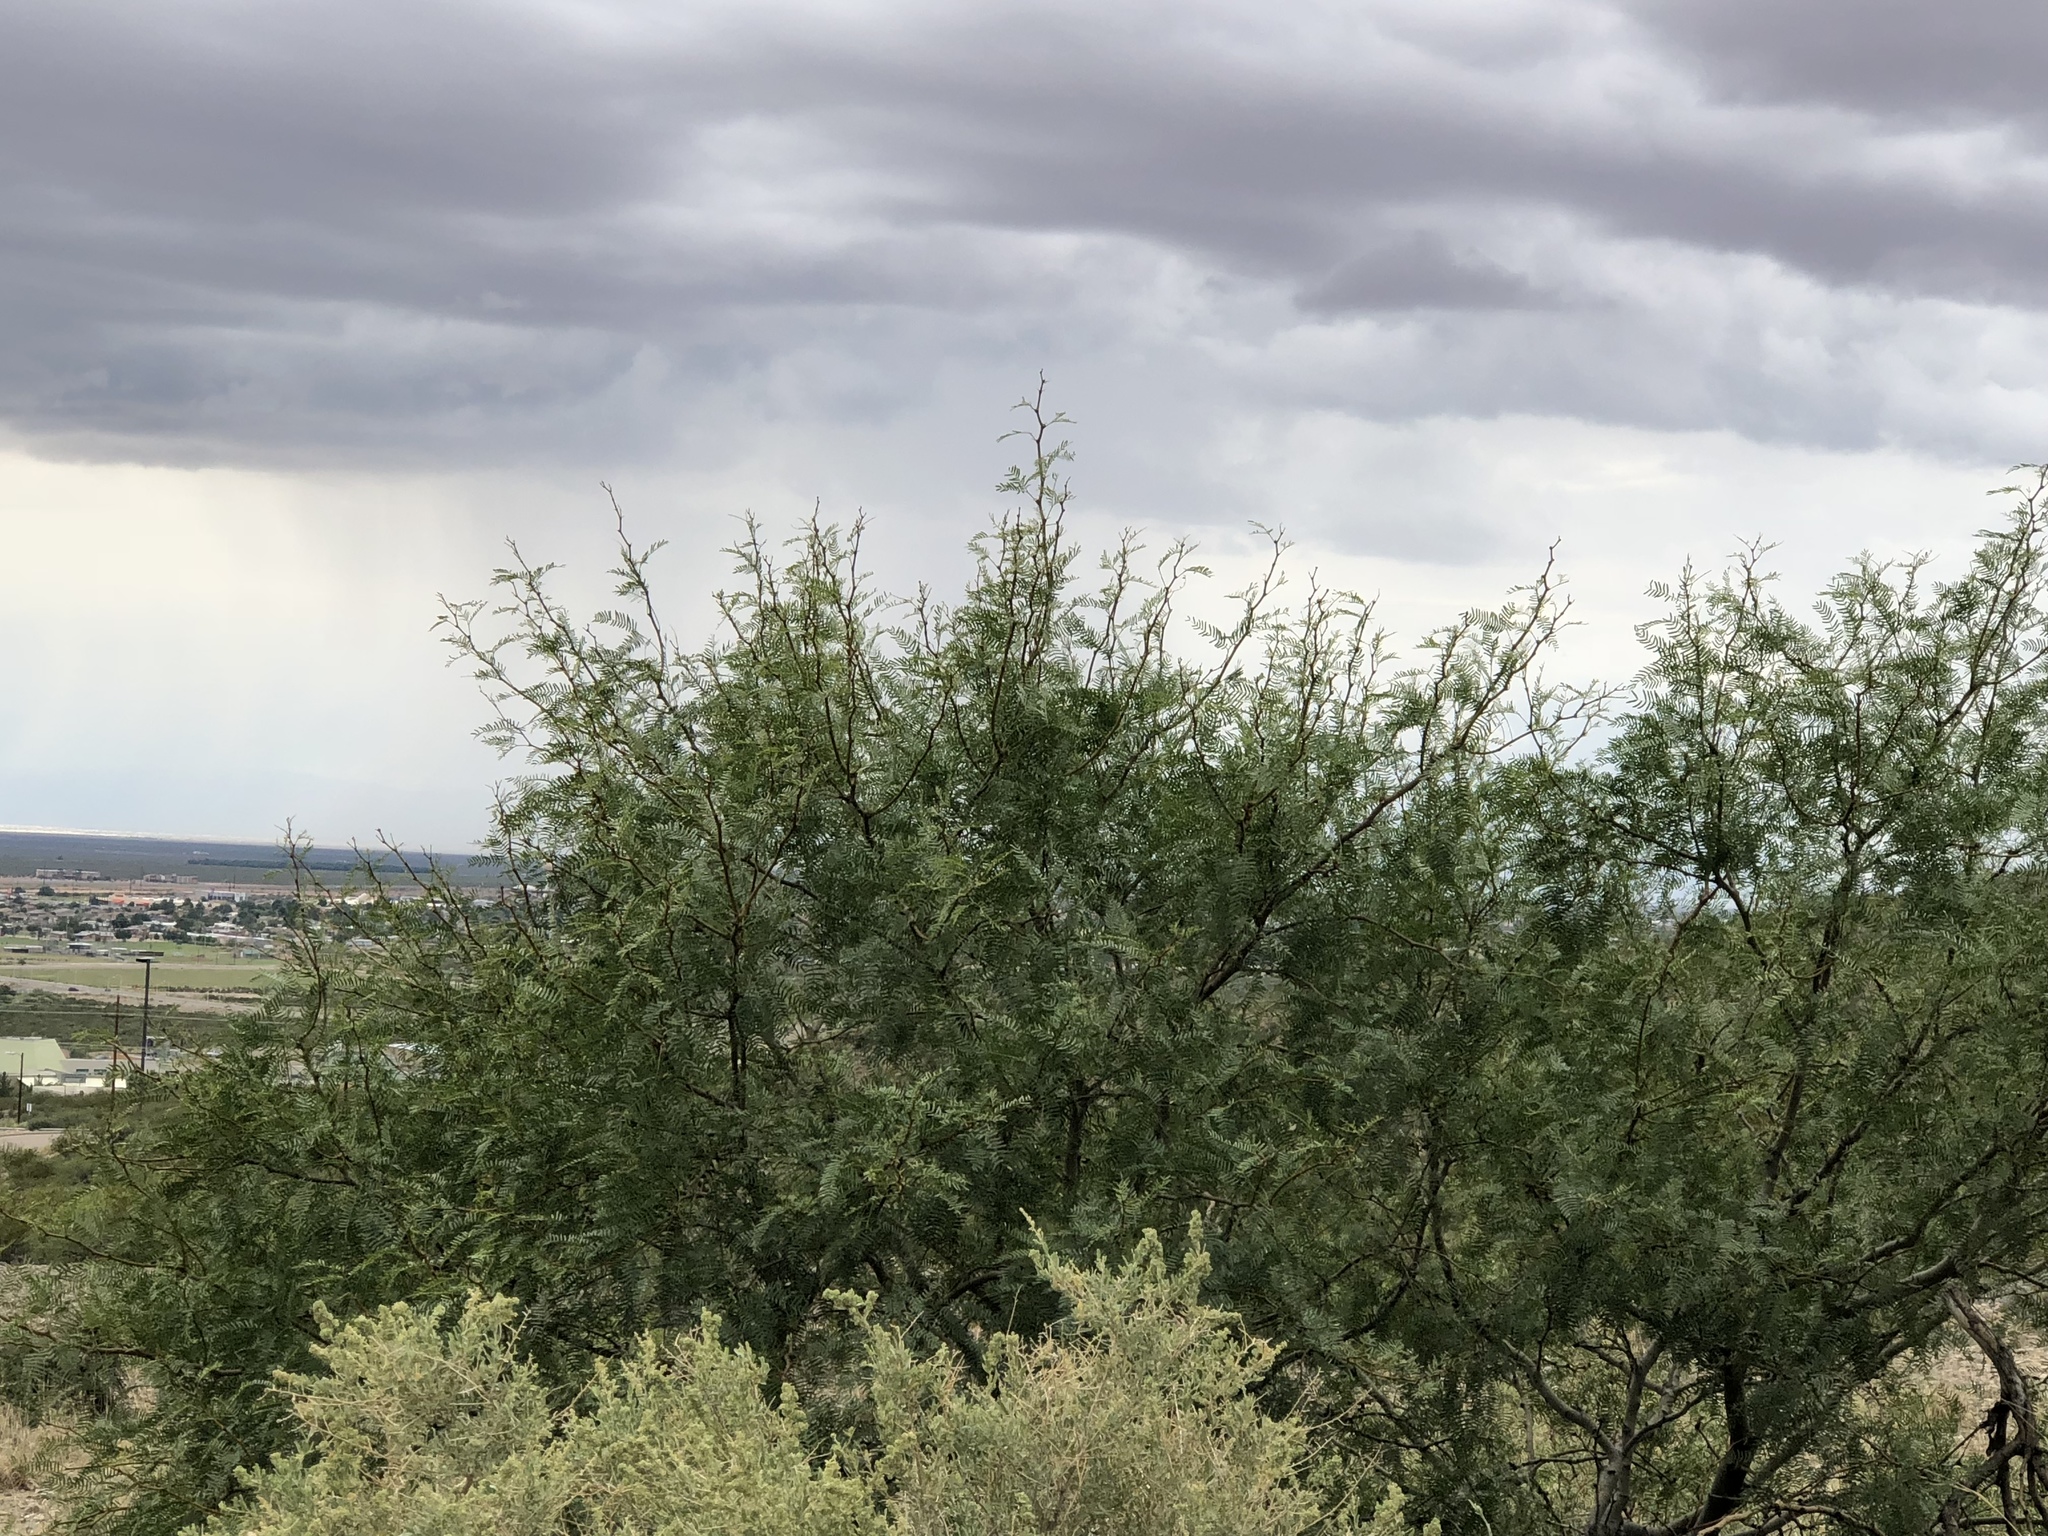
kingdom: Plantae
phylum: Tracheophyta
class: Magnoliopsida
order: Fabales
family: Fabaceae
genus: Prosopis
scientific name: Prosopis glandulosa
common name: Honey mesquite
